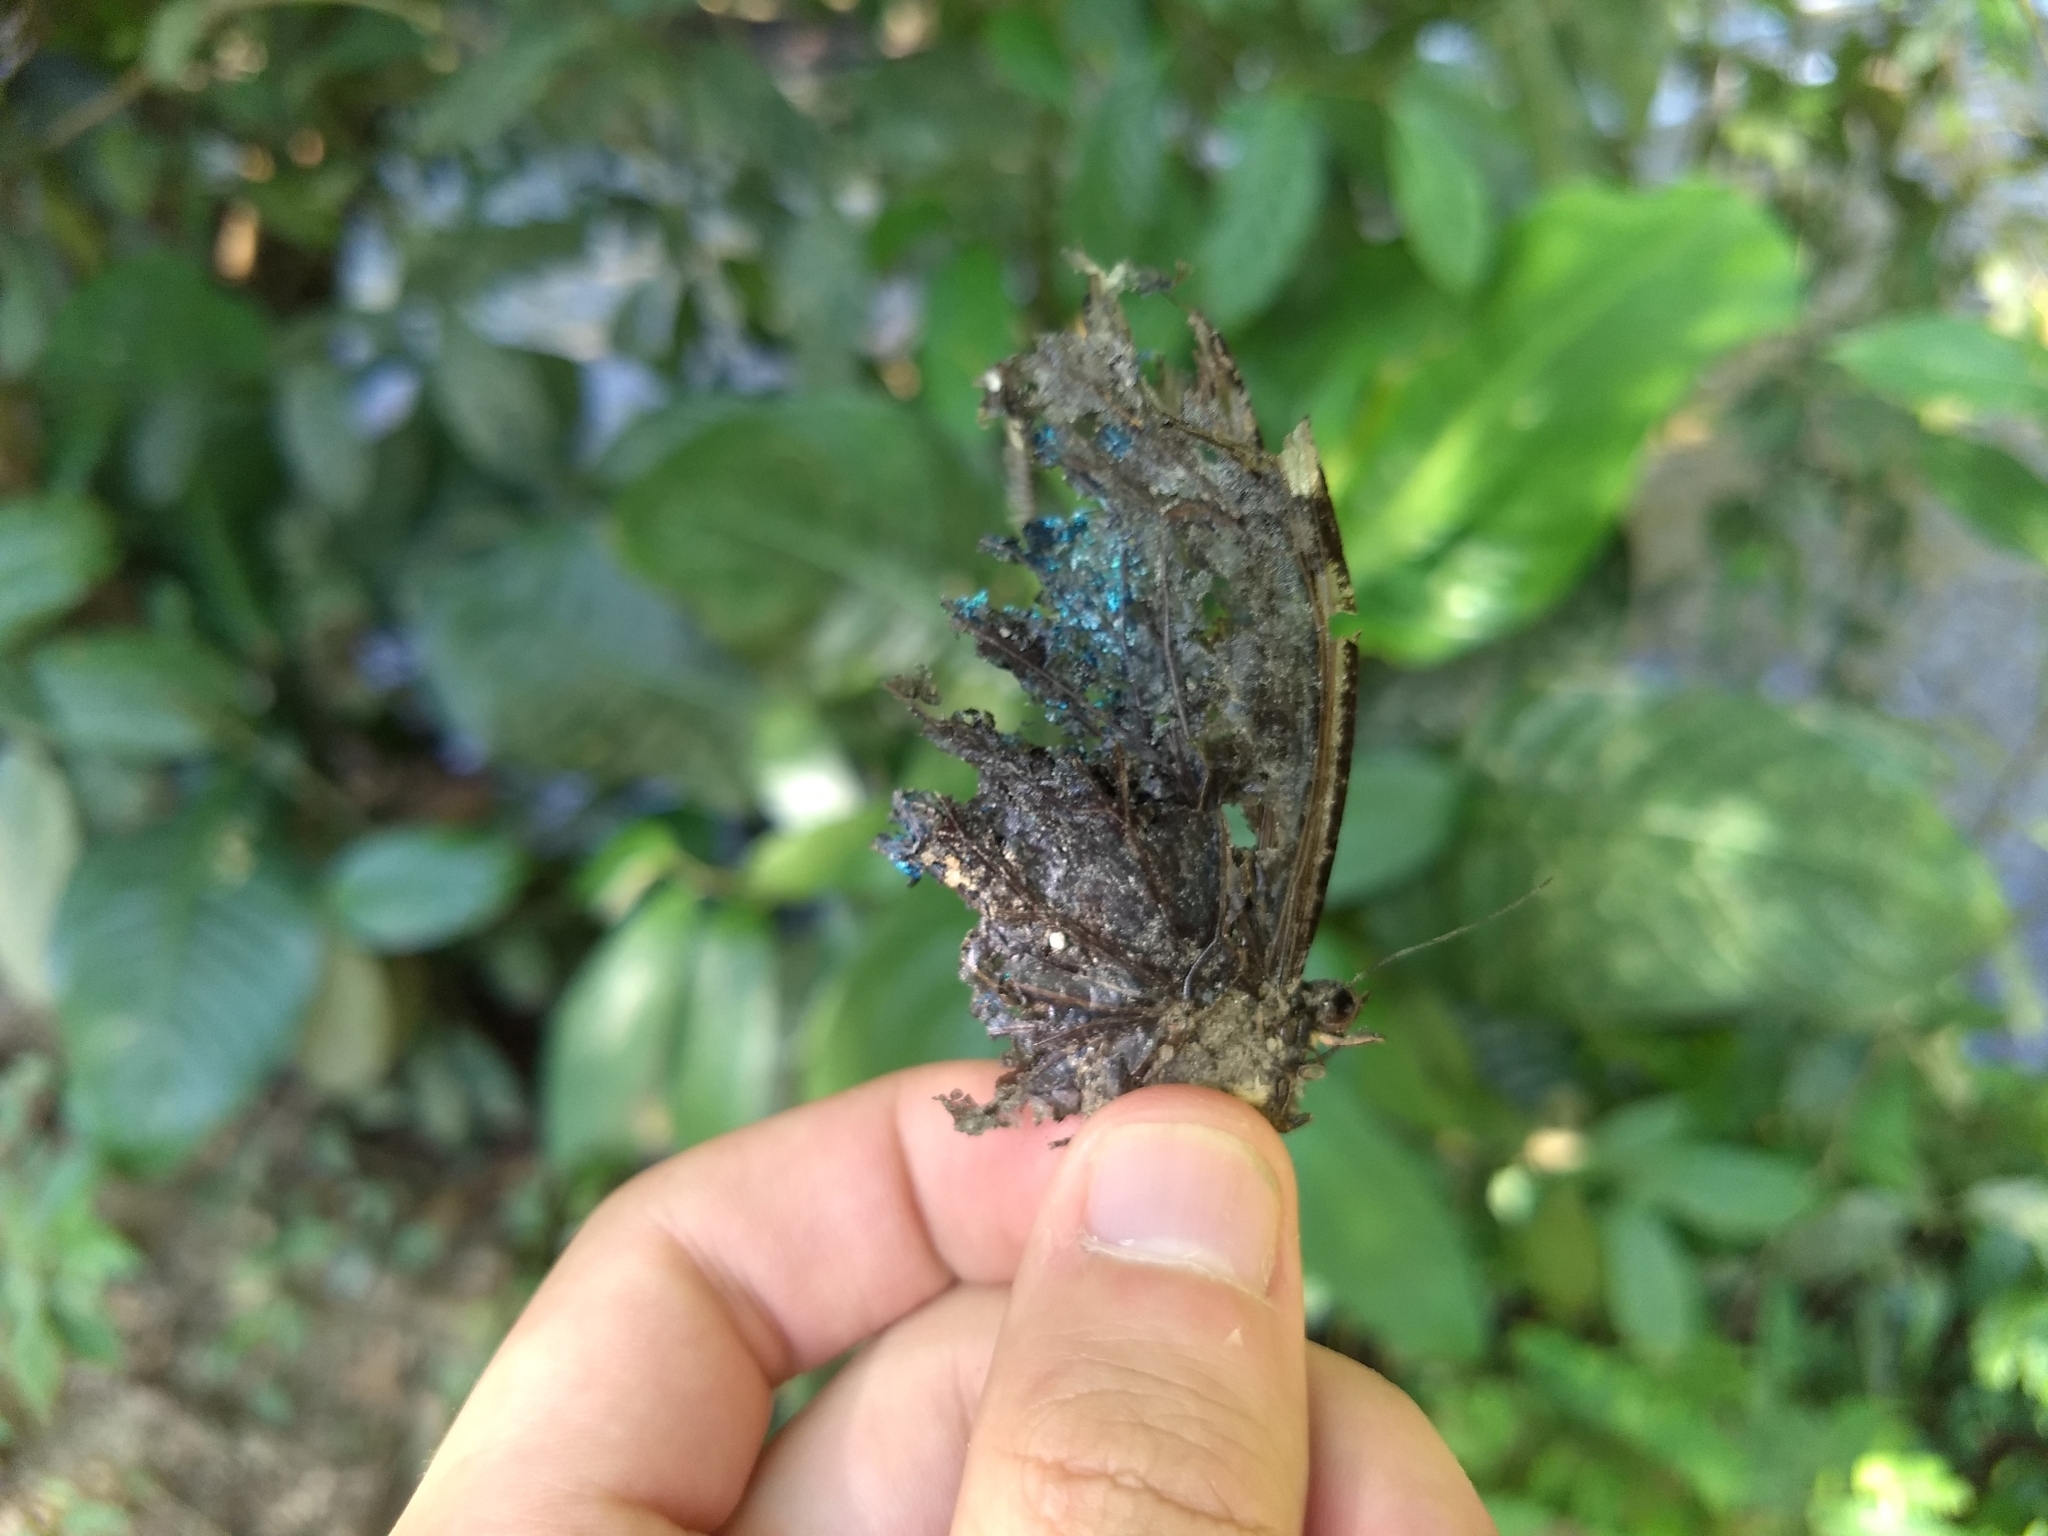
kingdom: Animalia
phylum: Arthropoda
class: Insecta
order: Lepidoptera
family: Nymphalidae
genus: Morpho
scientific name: Morpho helenor
